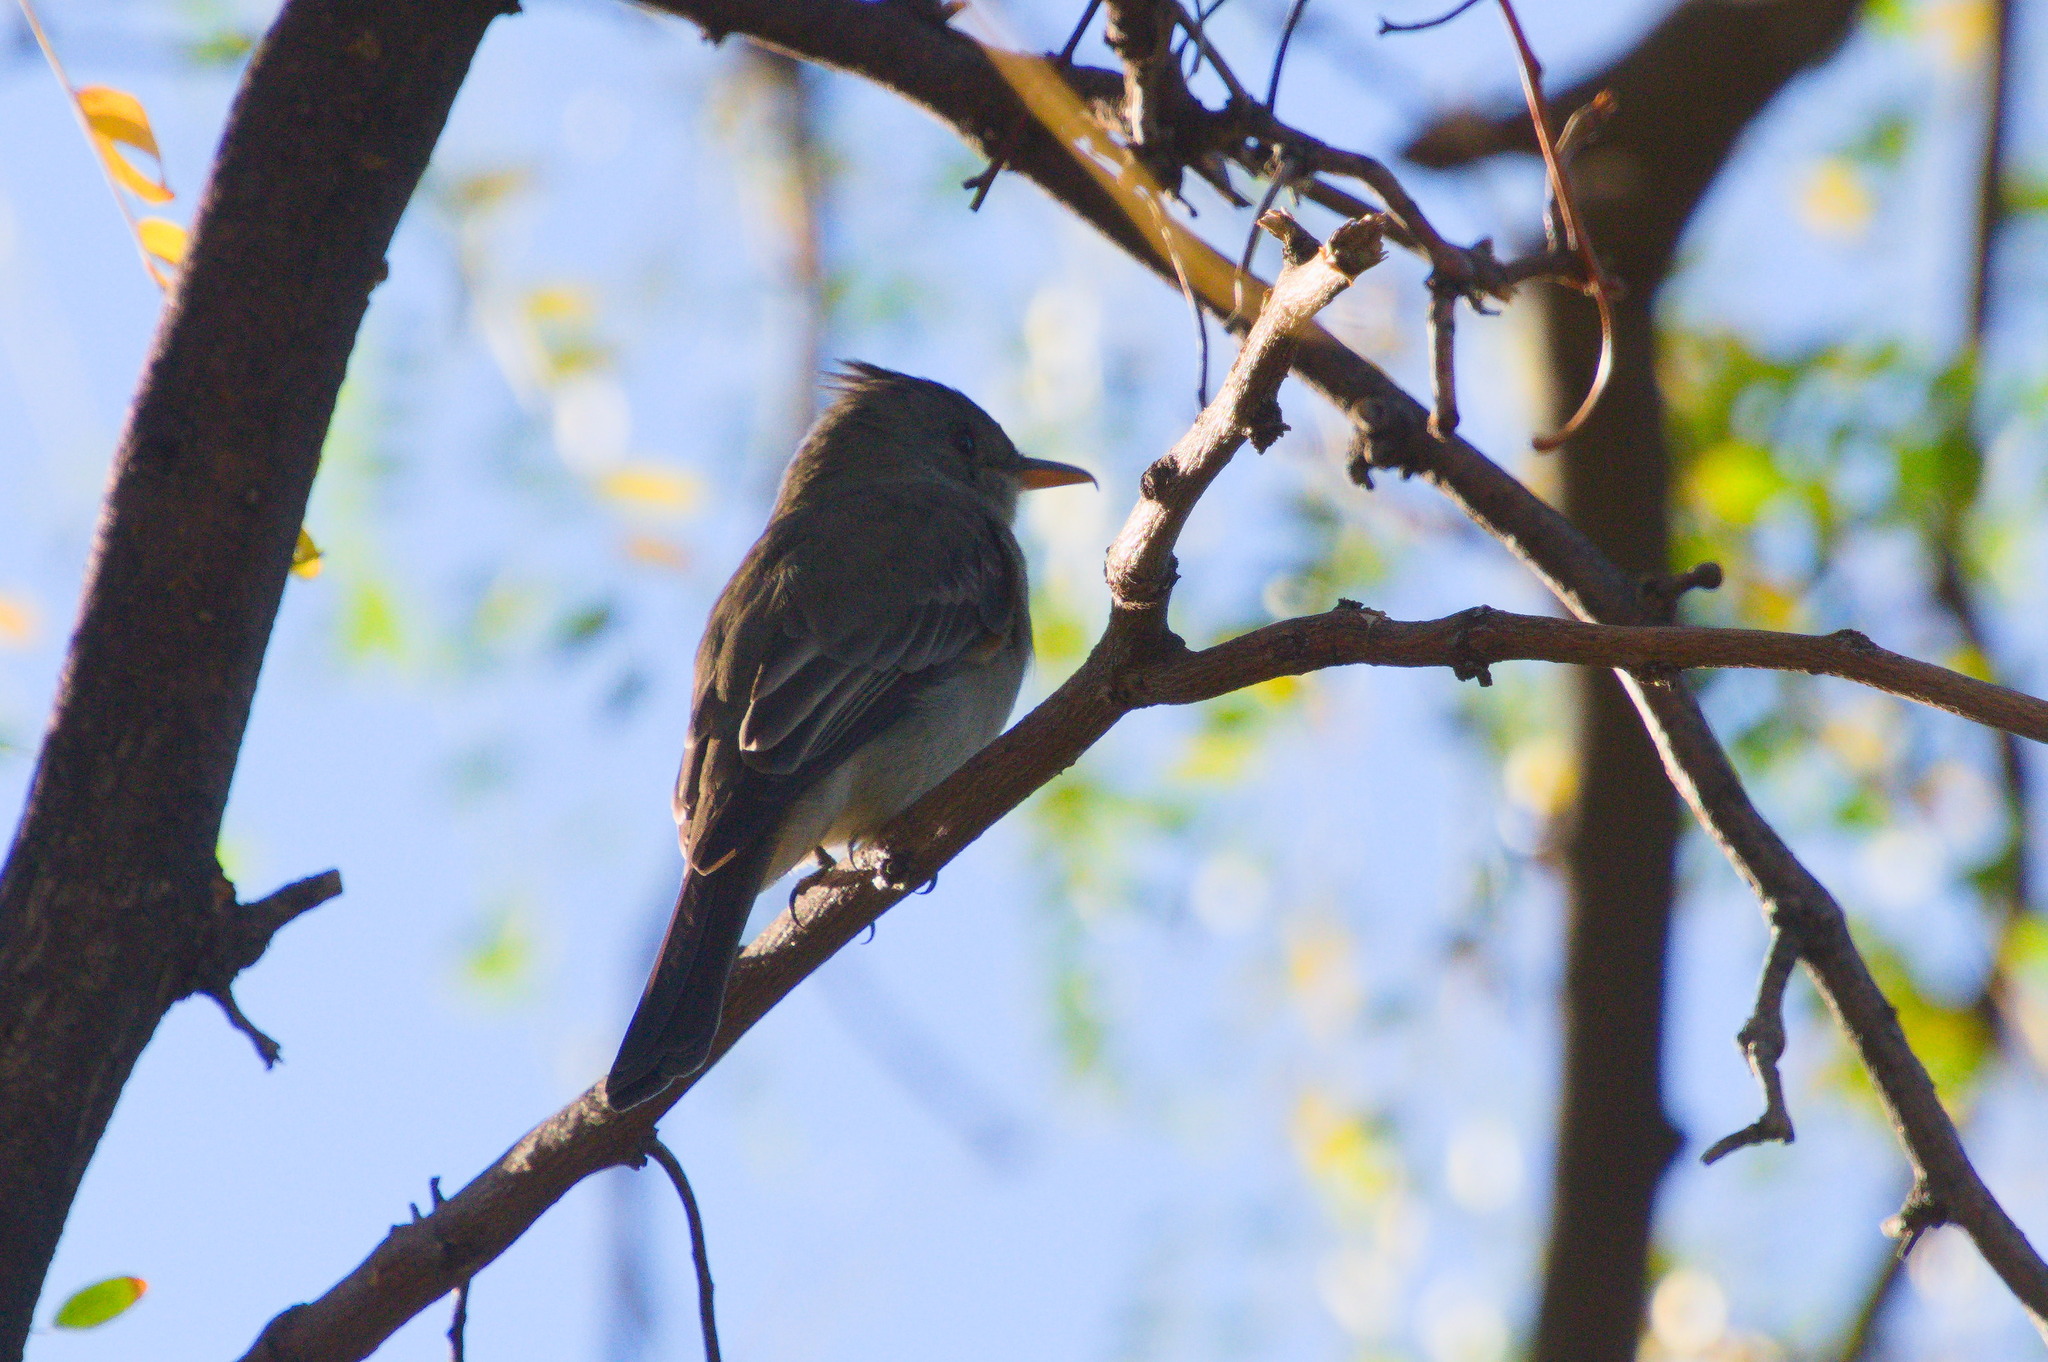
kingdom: Animalia
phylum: Chordata
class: Aves
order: Passeriformes
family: Tyrannidae
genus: Contopus
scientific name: Contopus pertinax
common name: Greater pewee
